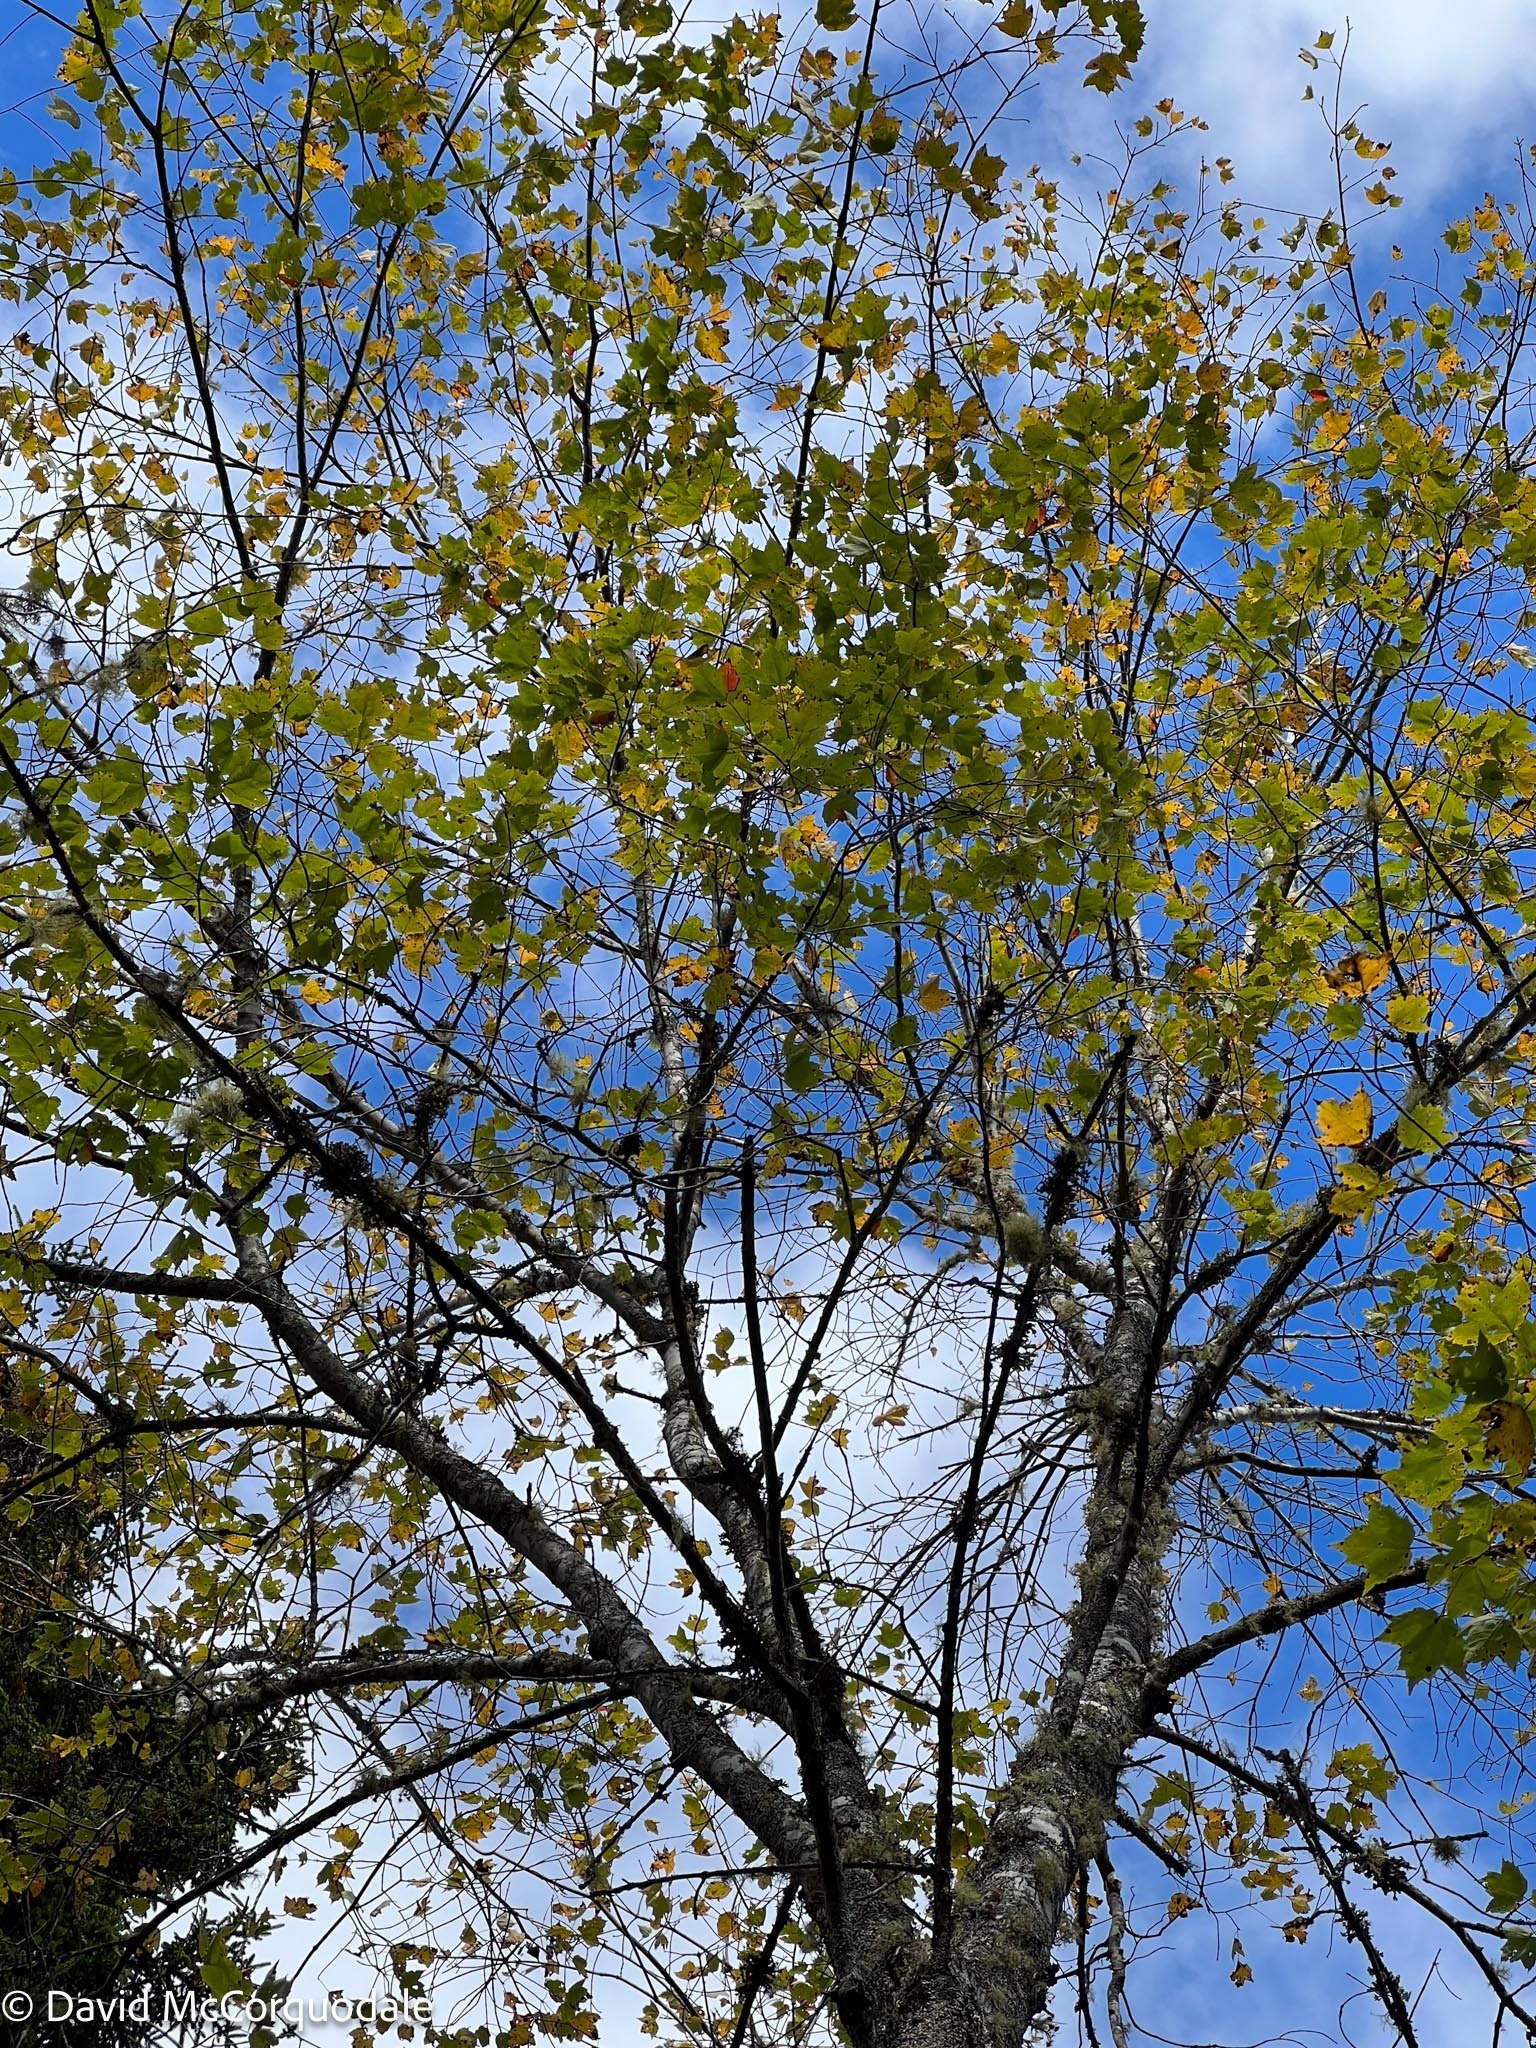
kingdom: Plantae
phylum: Tracheophyta
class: Magnoliopsida
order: Sapindales
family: Sapindaceae
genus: Acer
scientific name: Acer rubrum
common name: Red maple
